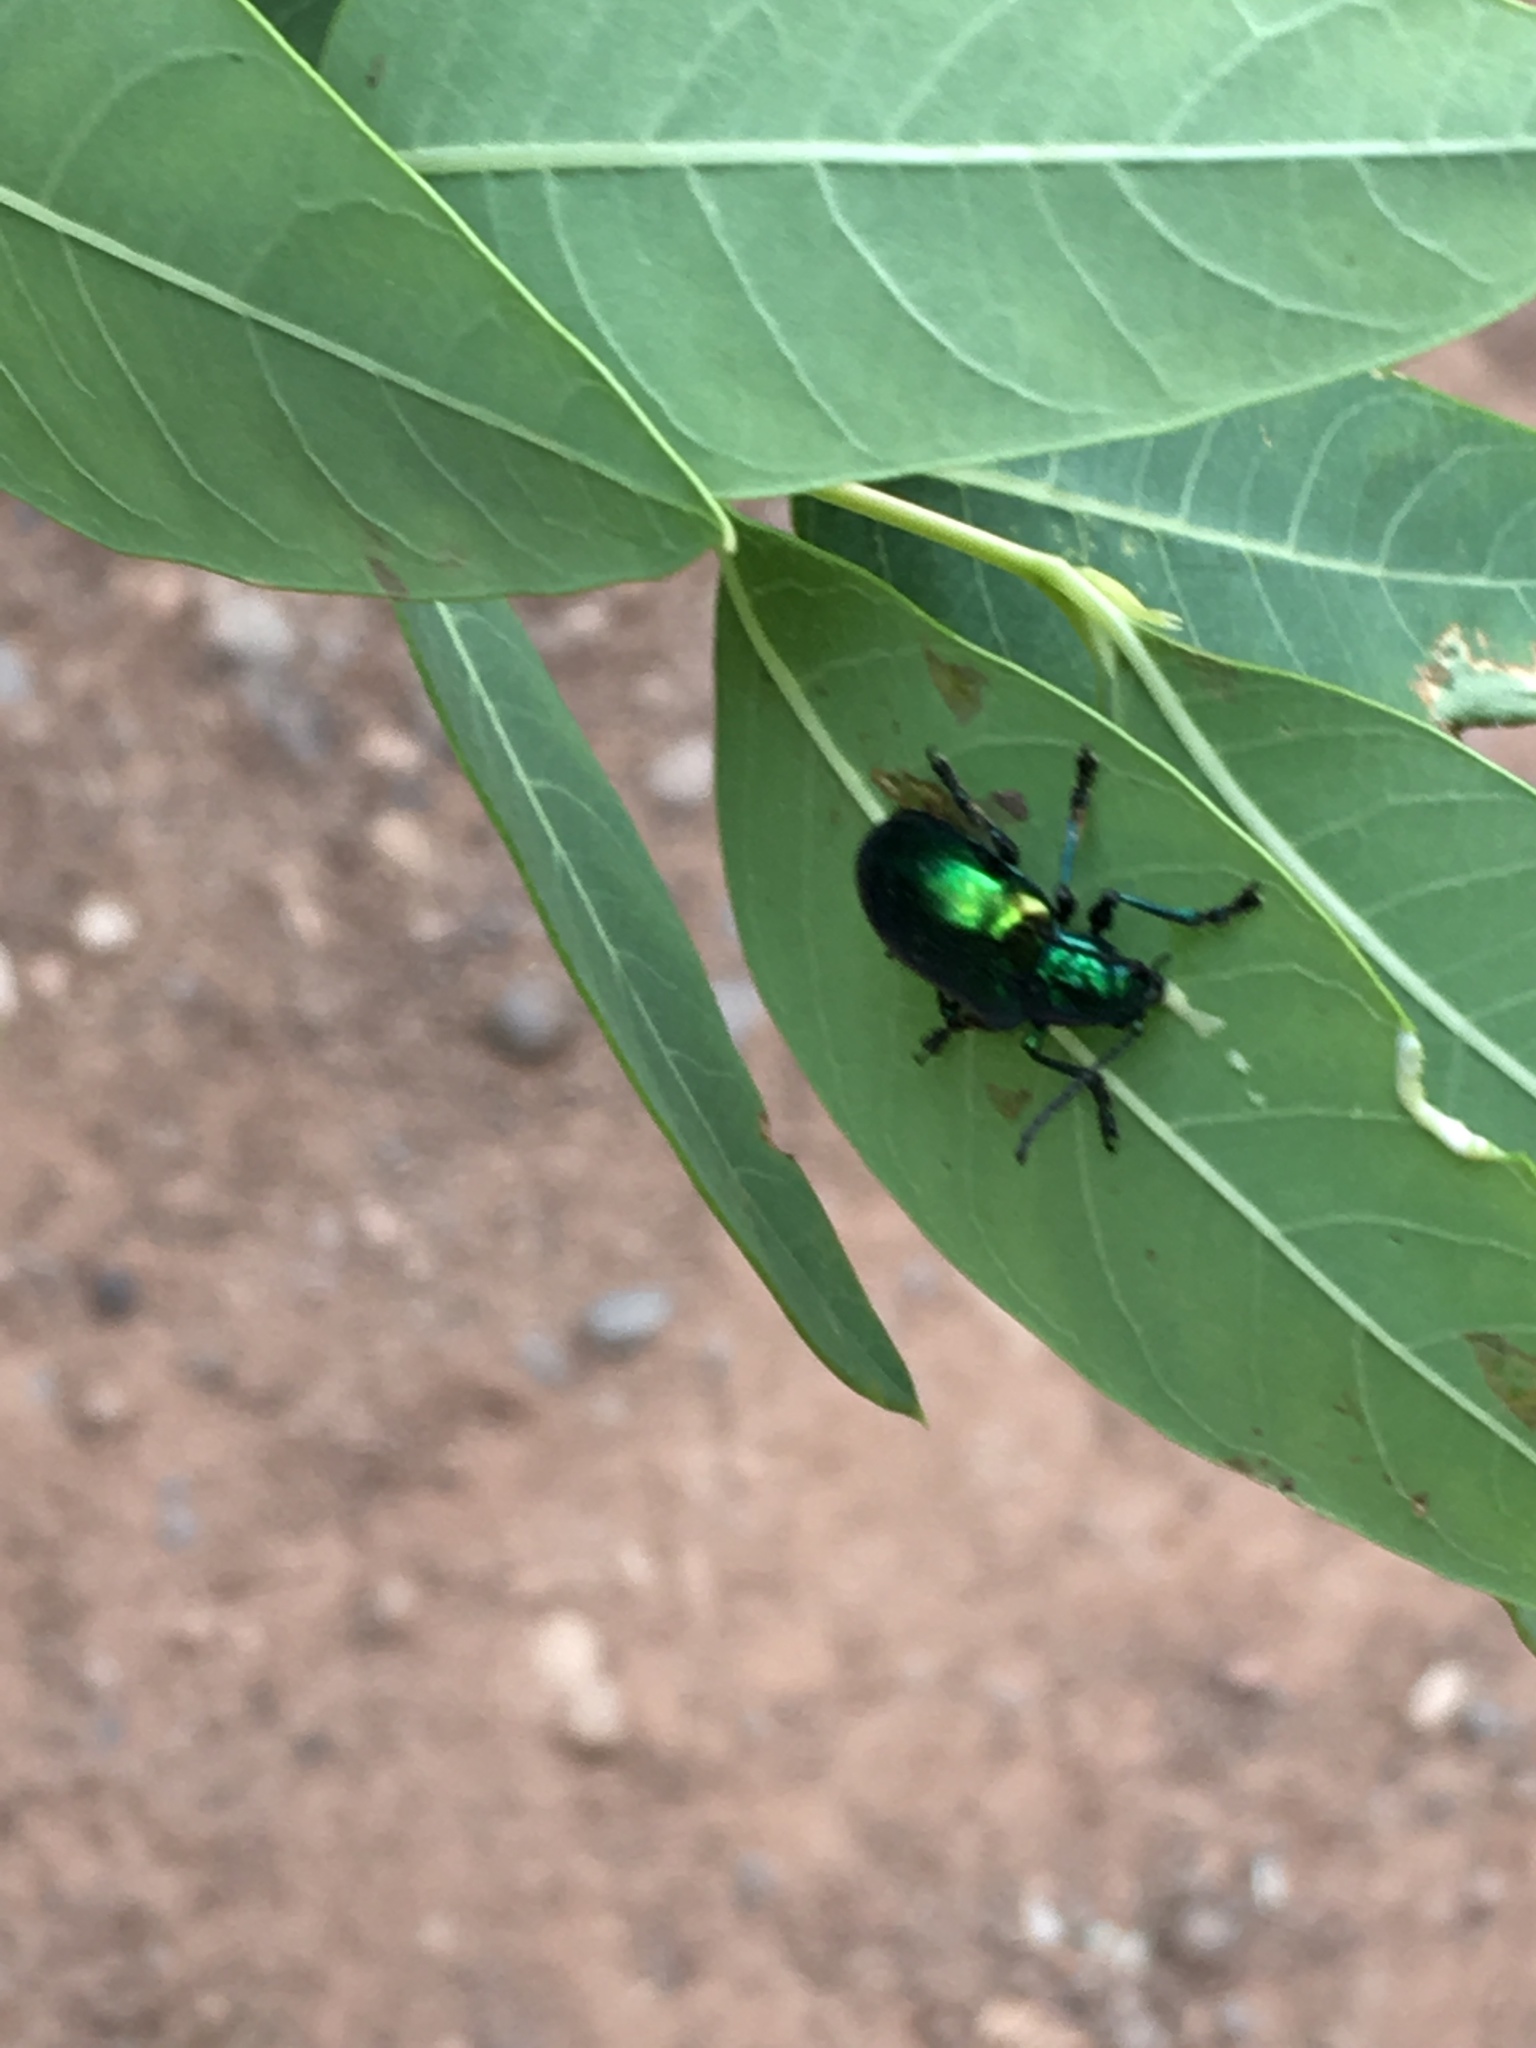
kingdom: Animalia
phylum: Arthropoda
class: Insecta
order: Coleoptera
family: Chrysomelidae
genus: Chrysochus
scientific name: Chrysochus auratus
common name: Dogbane leaf beetle
